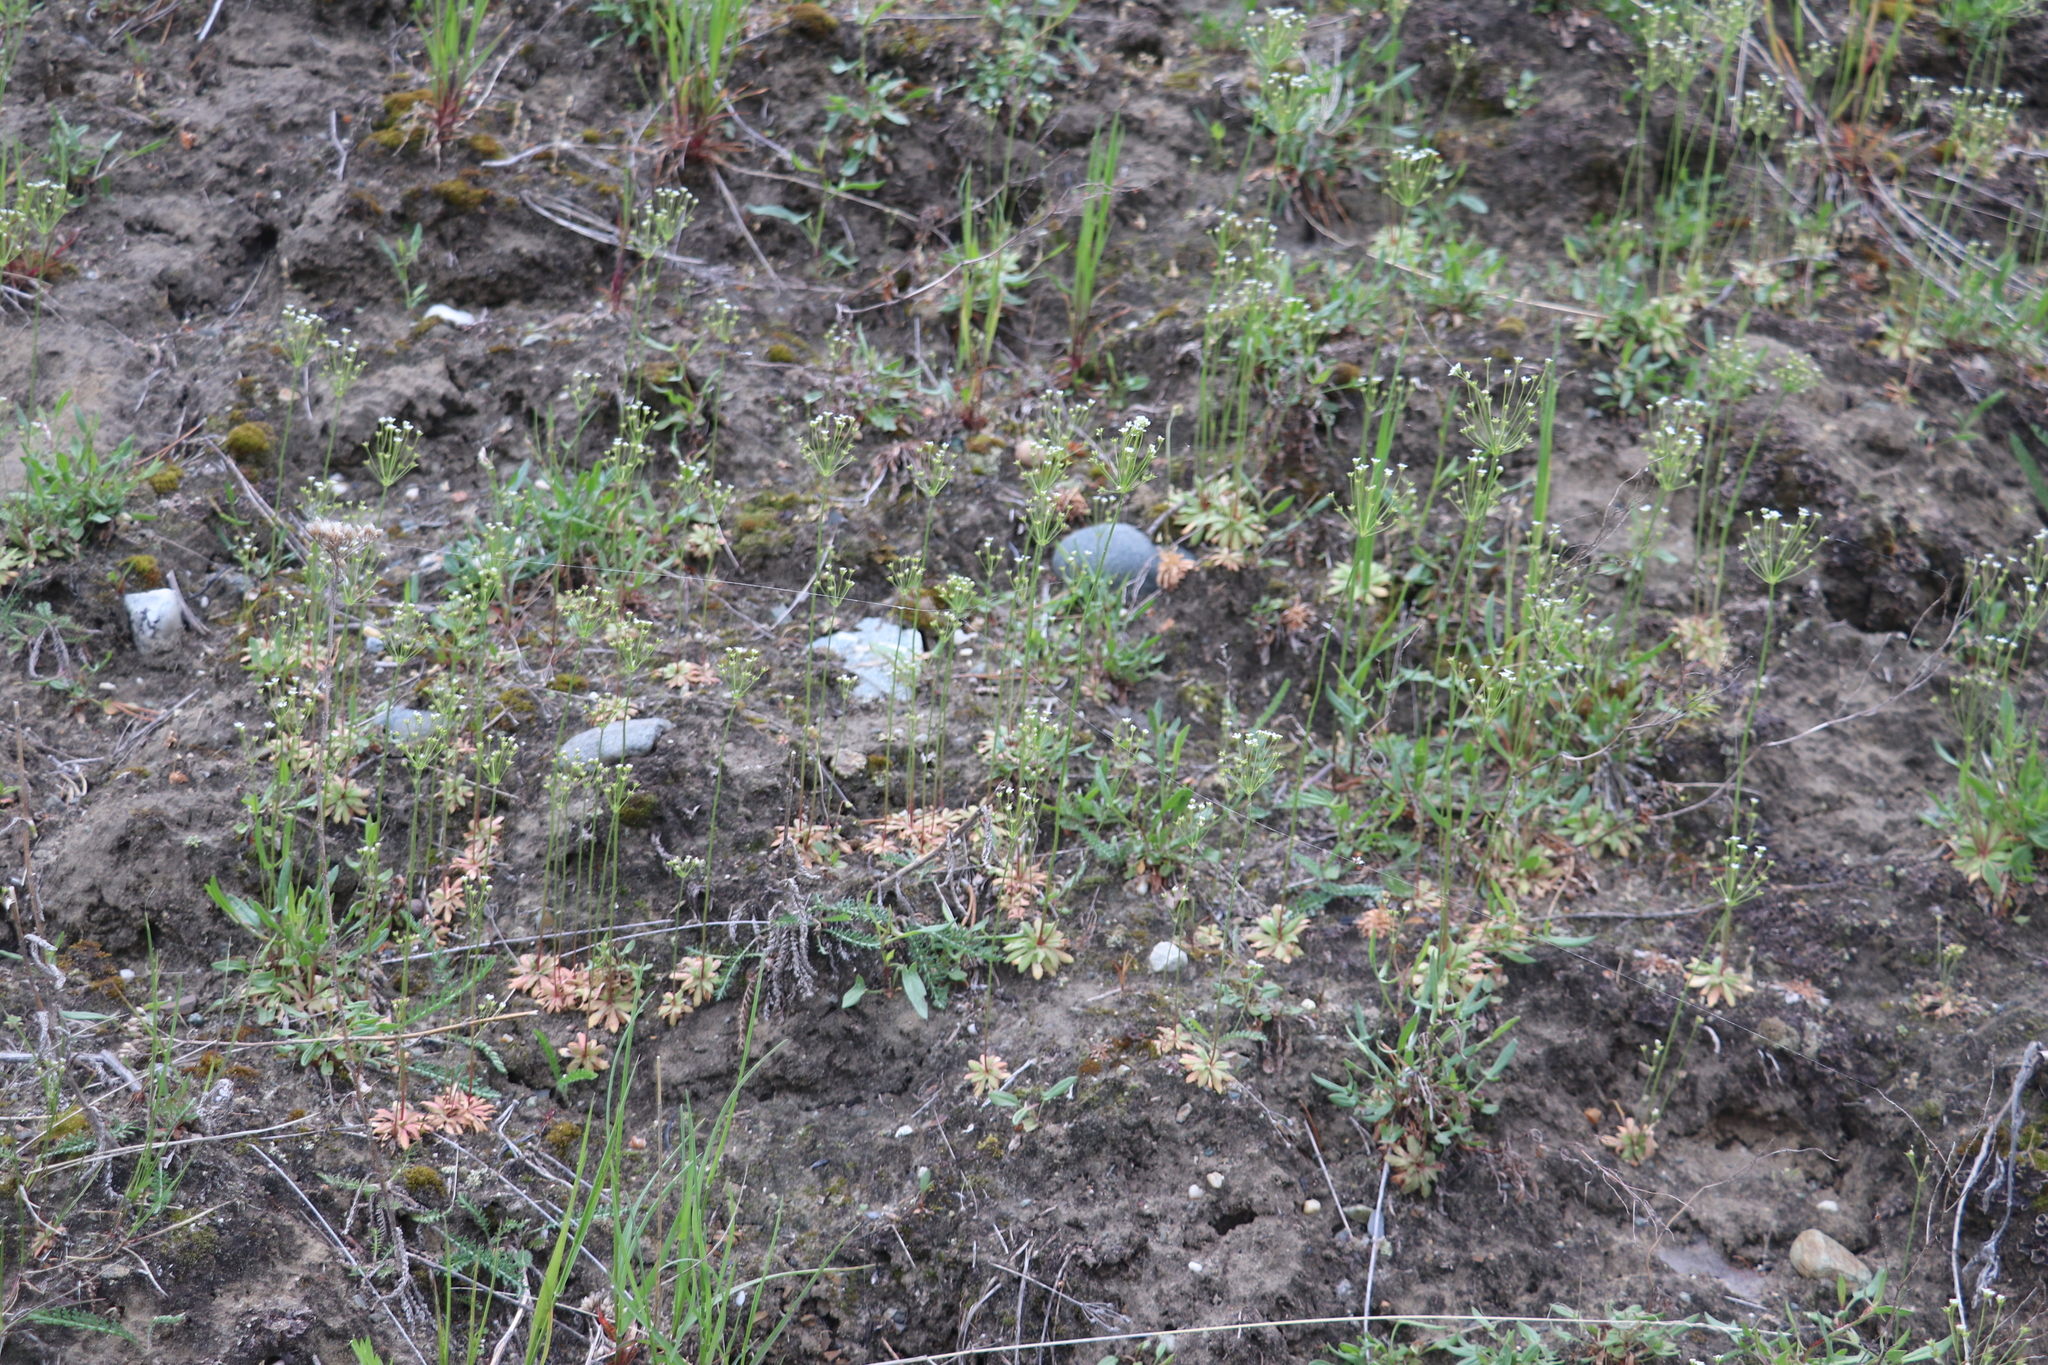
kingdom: Plantae
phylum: Tracheophyta
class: Magnoliopsida
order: Ericales
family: Primulaceae
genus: Androsace
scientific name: Androsace septentrionalis
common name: Hairy northern fairy-candelabra
